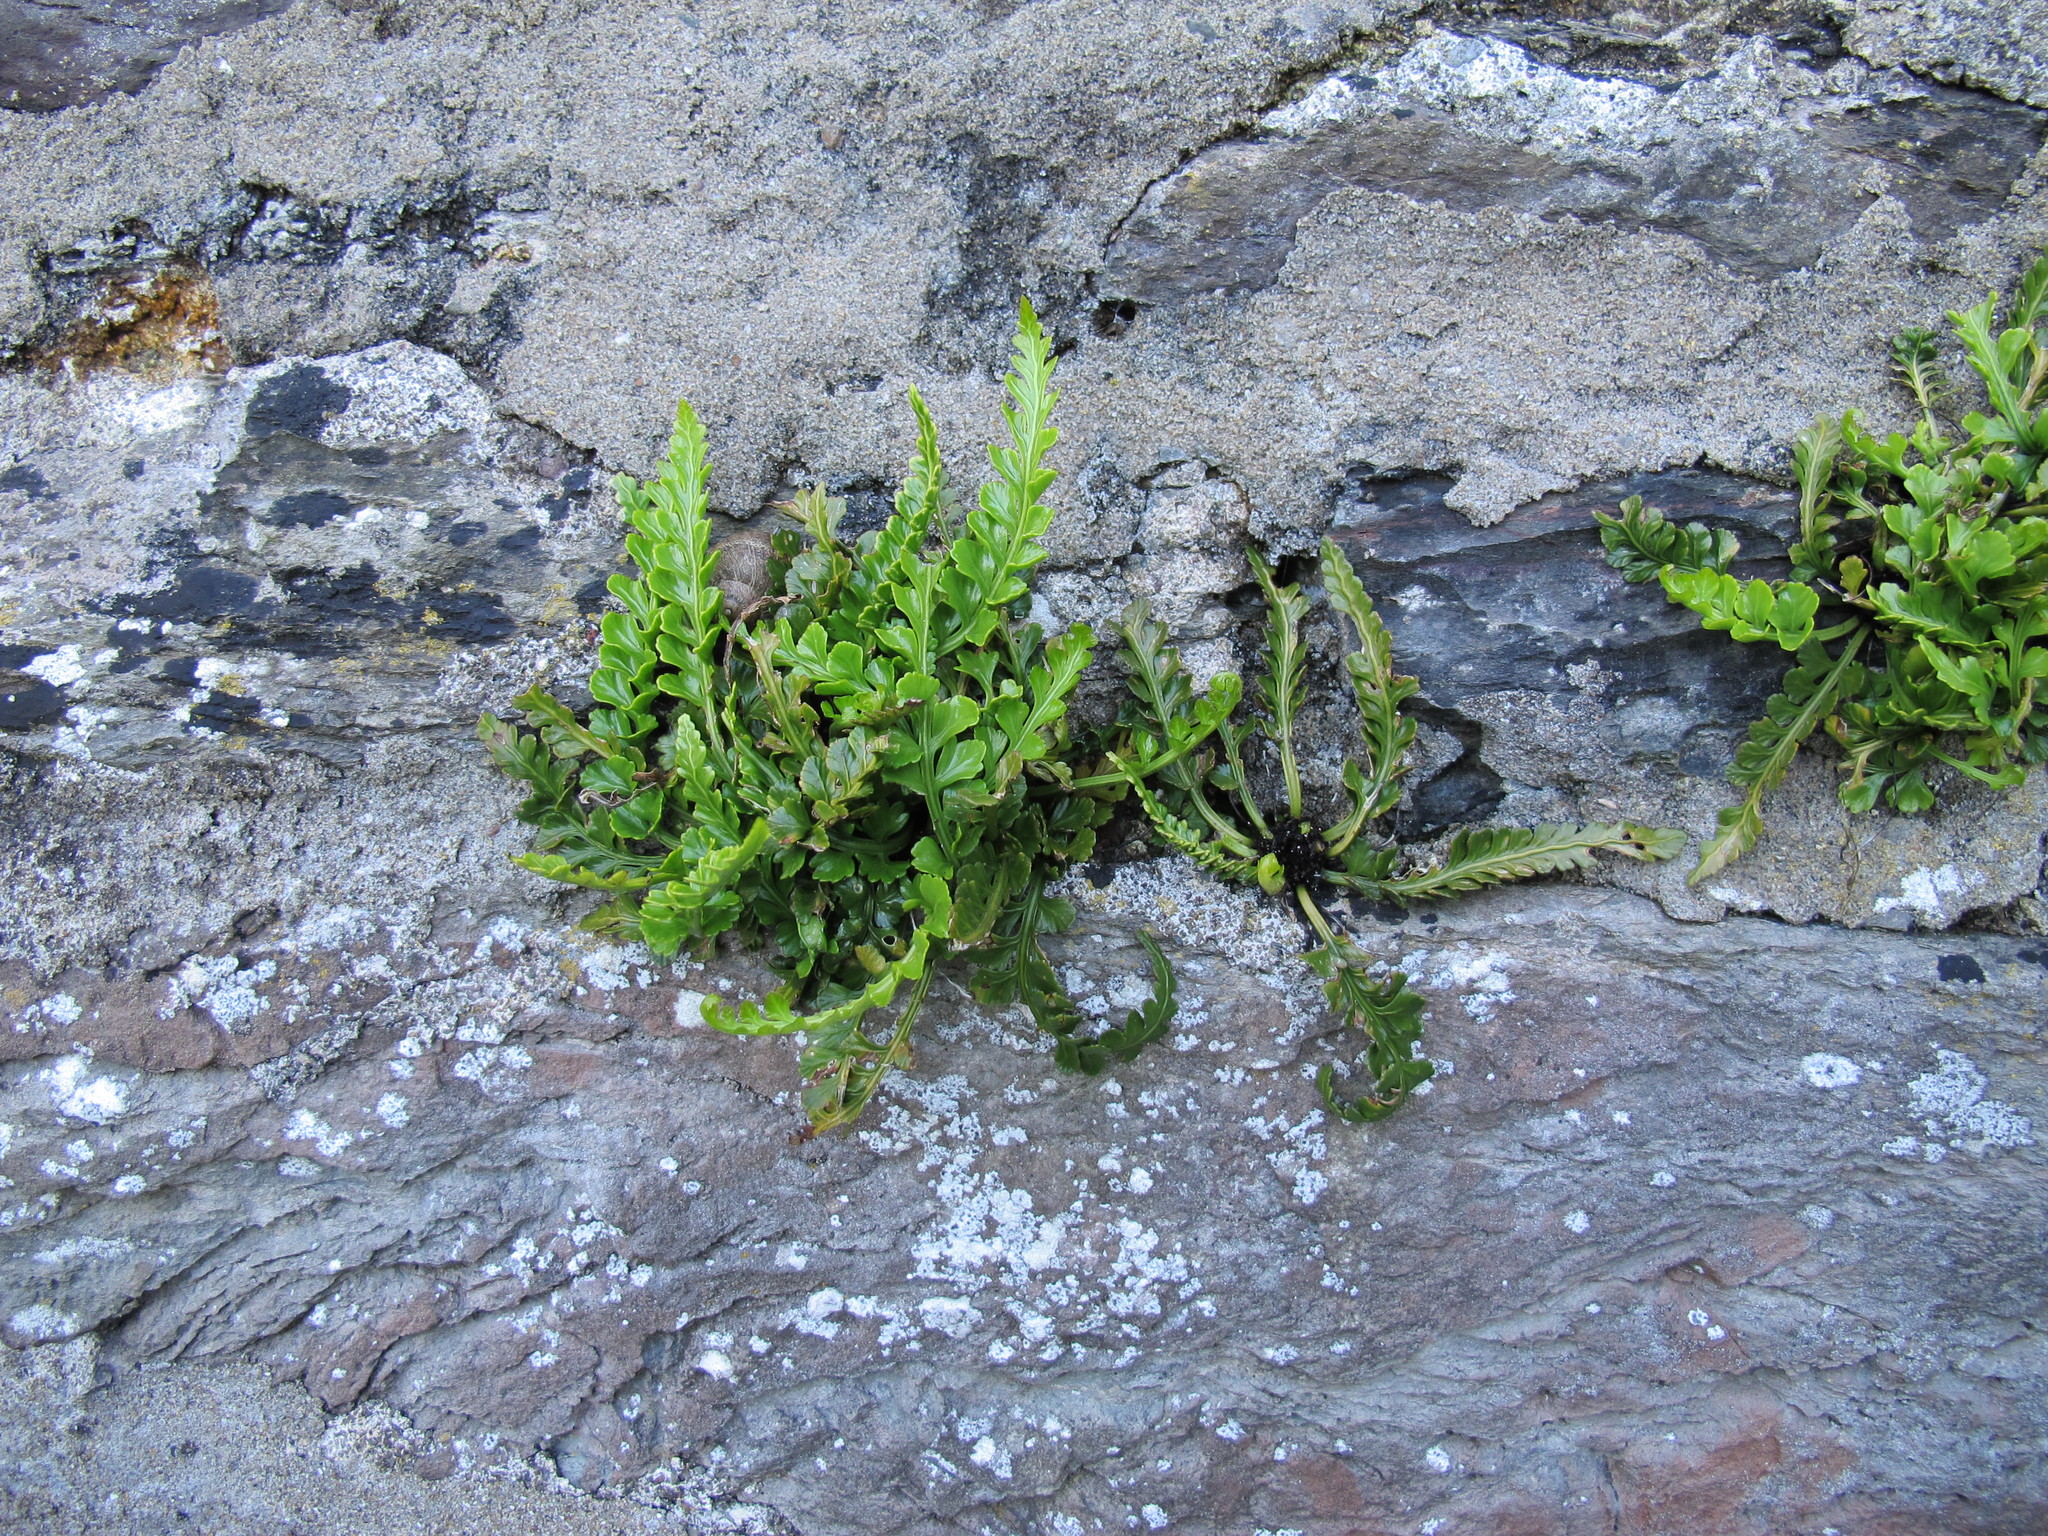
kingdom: Plantae
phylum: Tracheophyta
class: Polypodiopsida
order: Polypodiales
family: Aspleniaceae
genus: Asplenium
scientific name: Asplenium marinum
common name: Sea spleenwort
